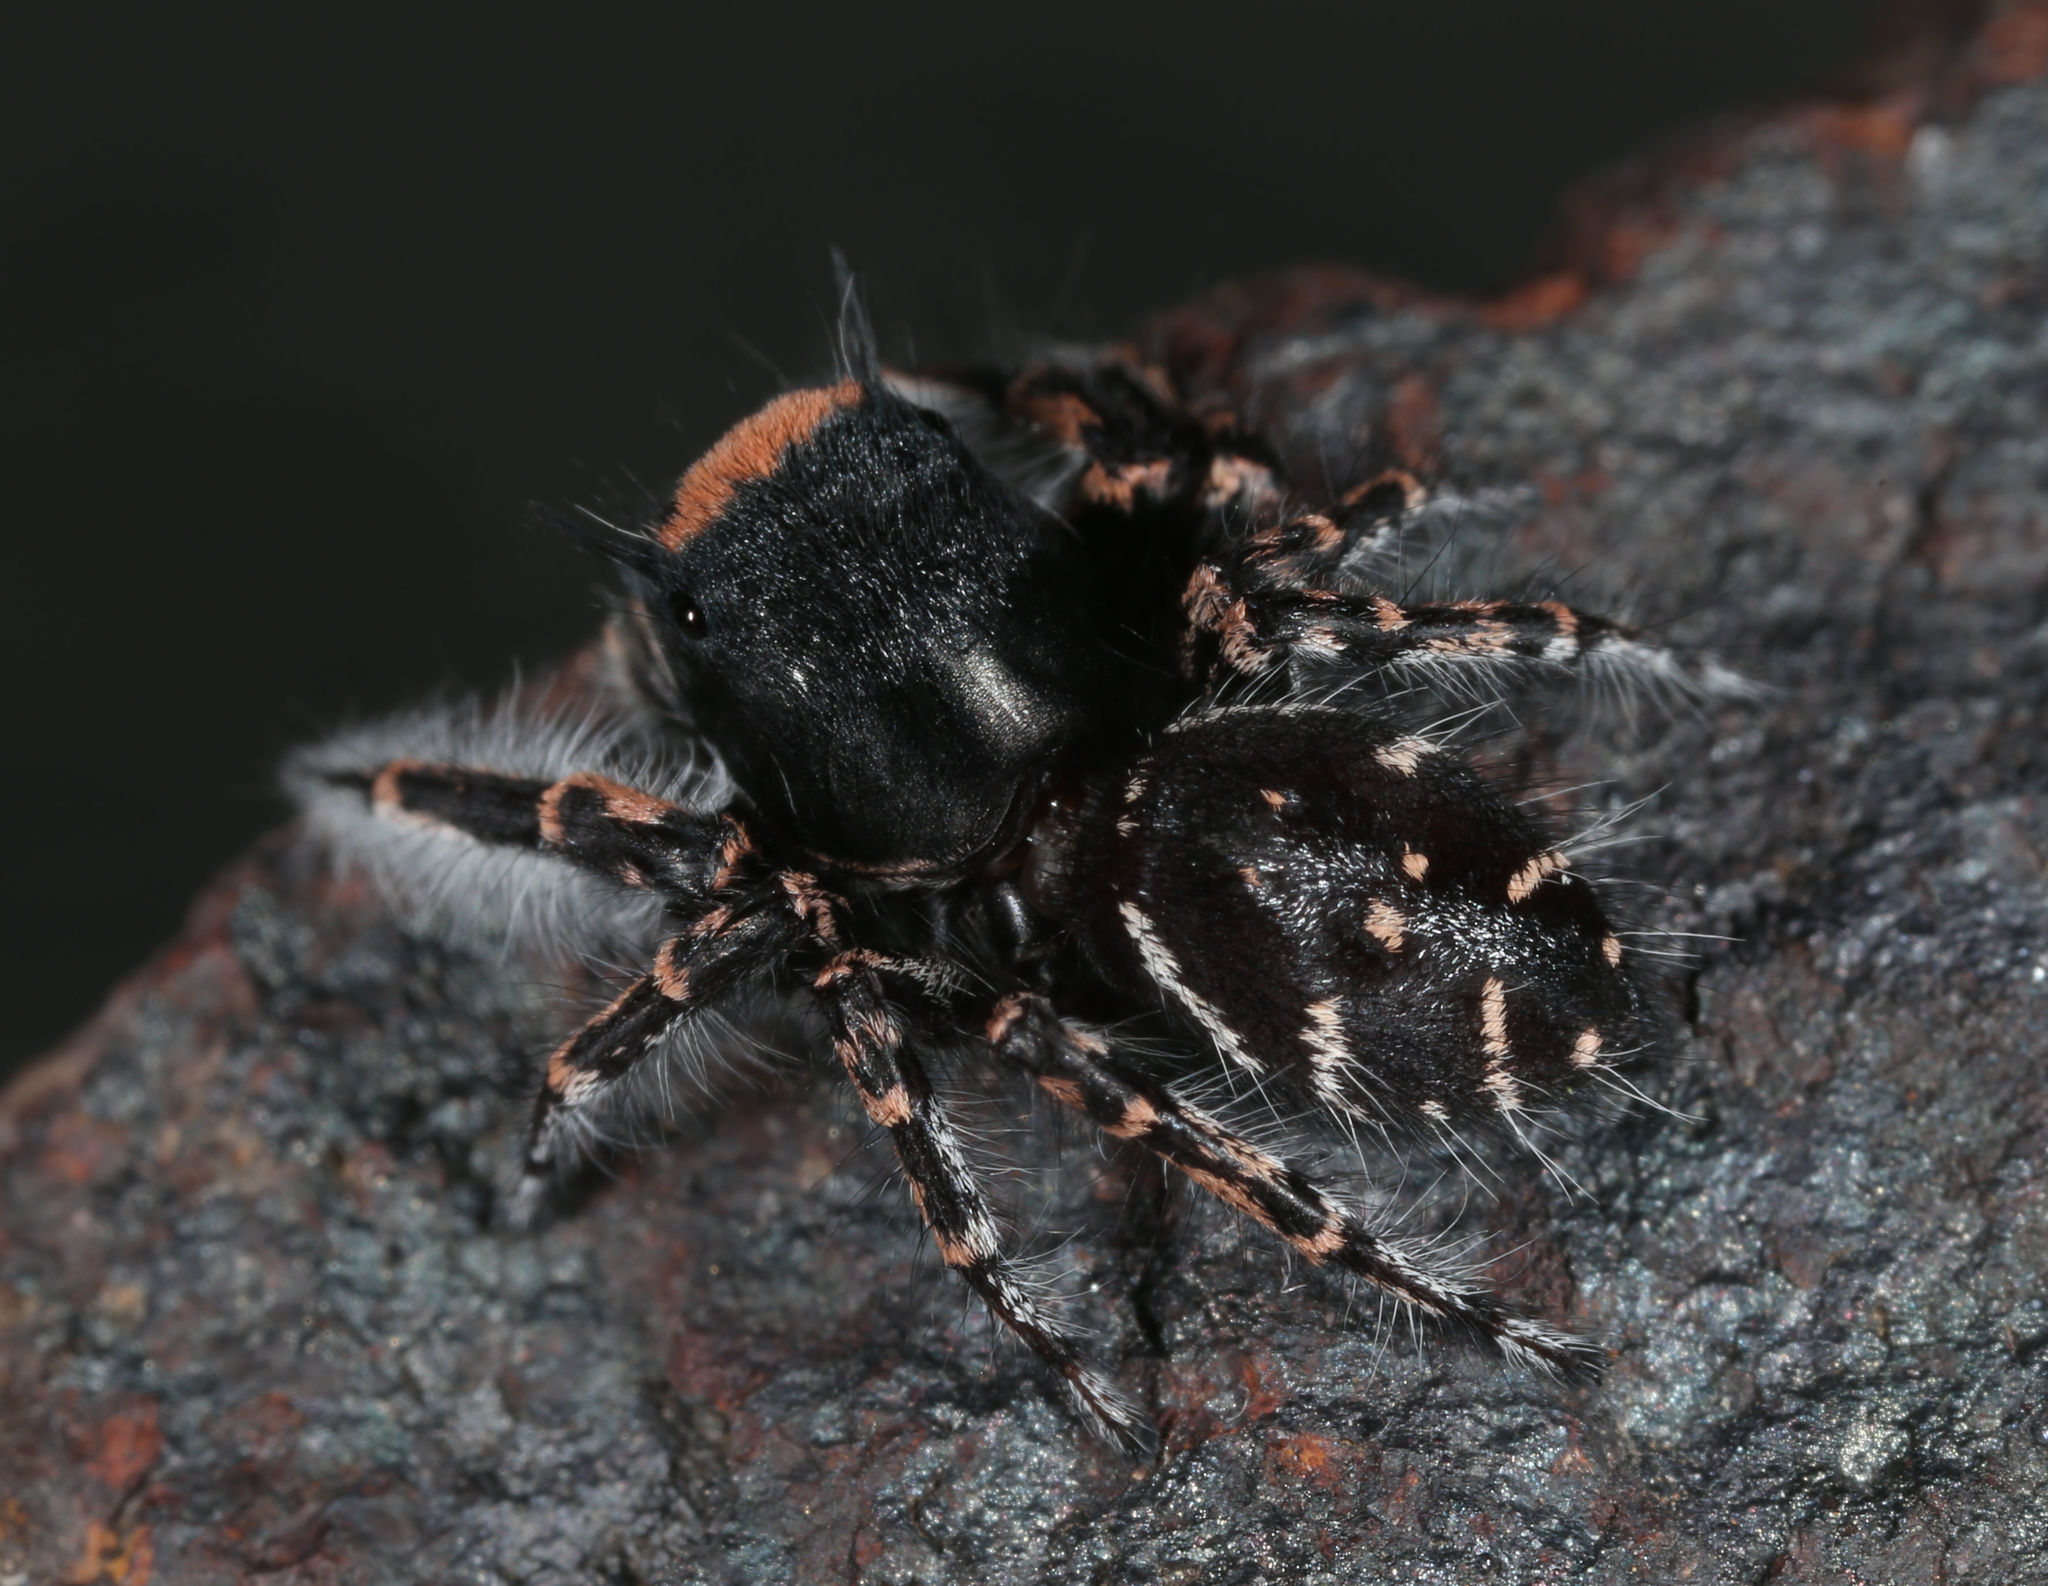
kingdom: Animalia
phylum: Arthropoda
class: Arachnida
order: Araneae
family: Salticidae
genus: Phidippus
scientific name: Phidippus toro
